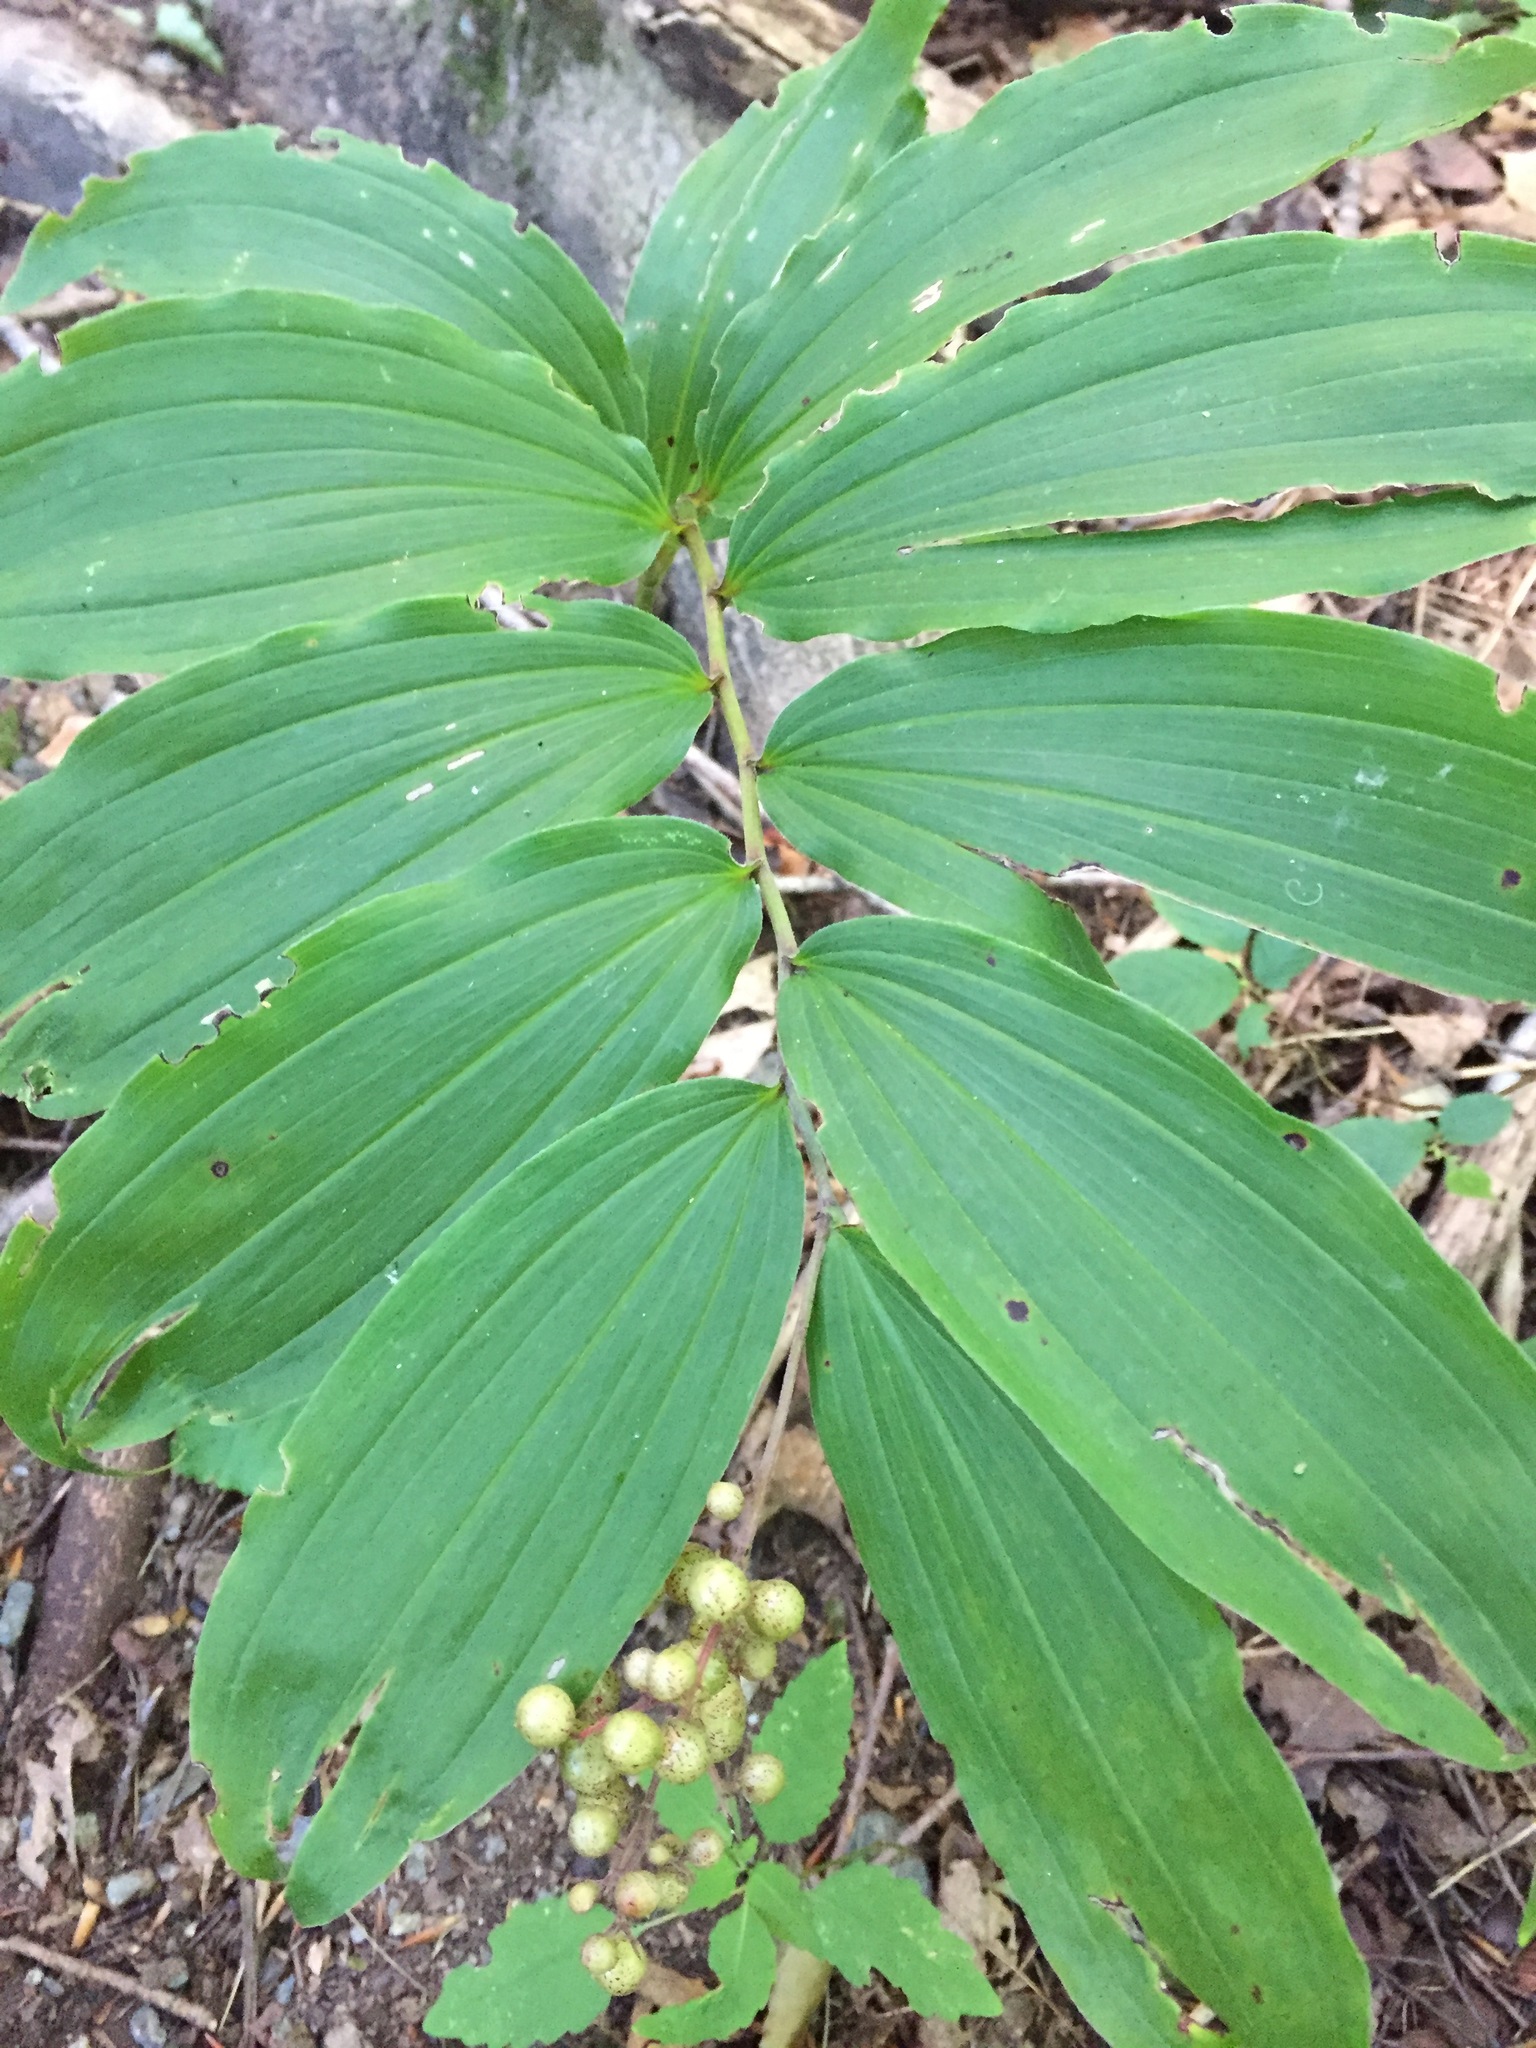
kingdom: Plantae
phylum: Tracheophyta
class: Liliopsida
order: Asparagales
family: Asparagaceae
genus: Maianthemum
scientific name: Maianthemum racemosum
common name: False spikenard
